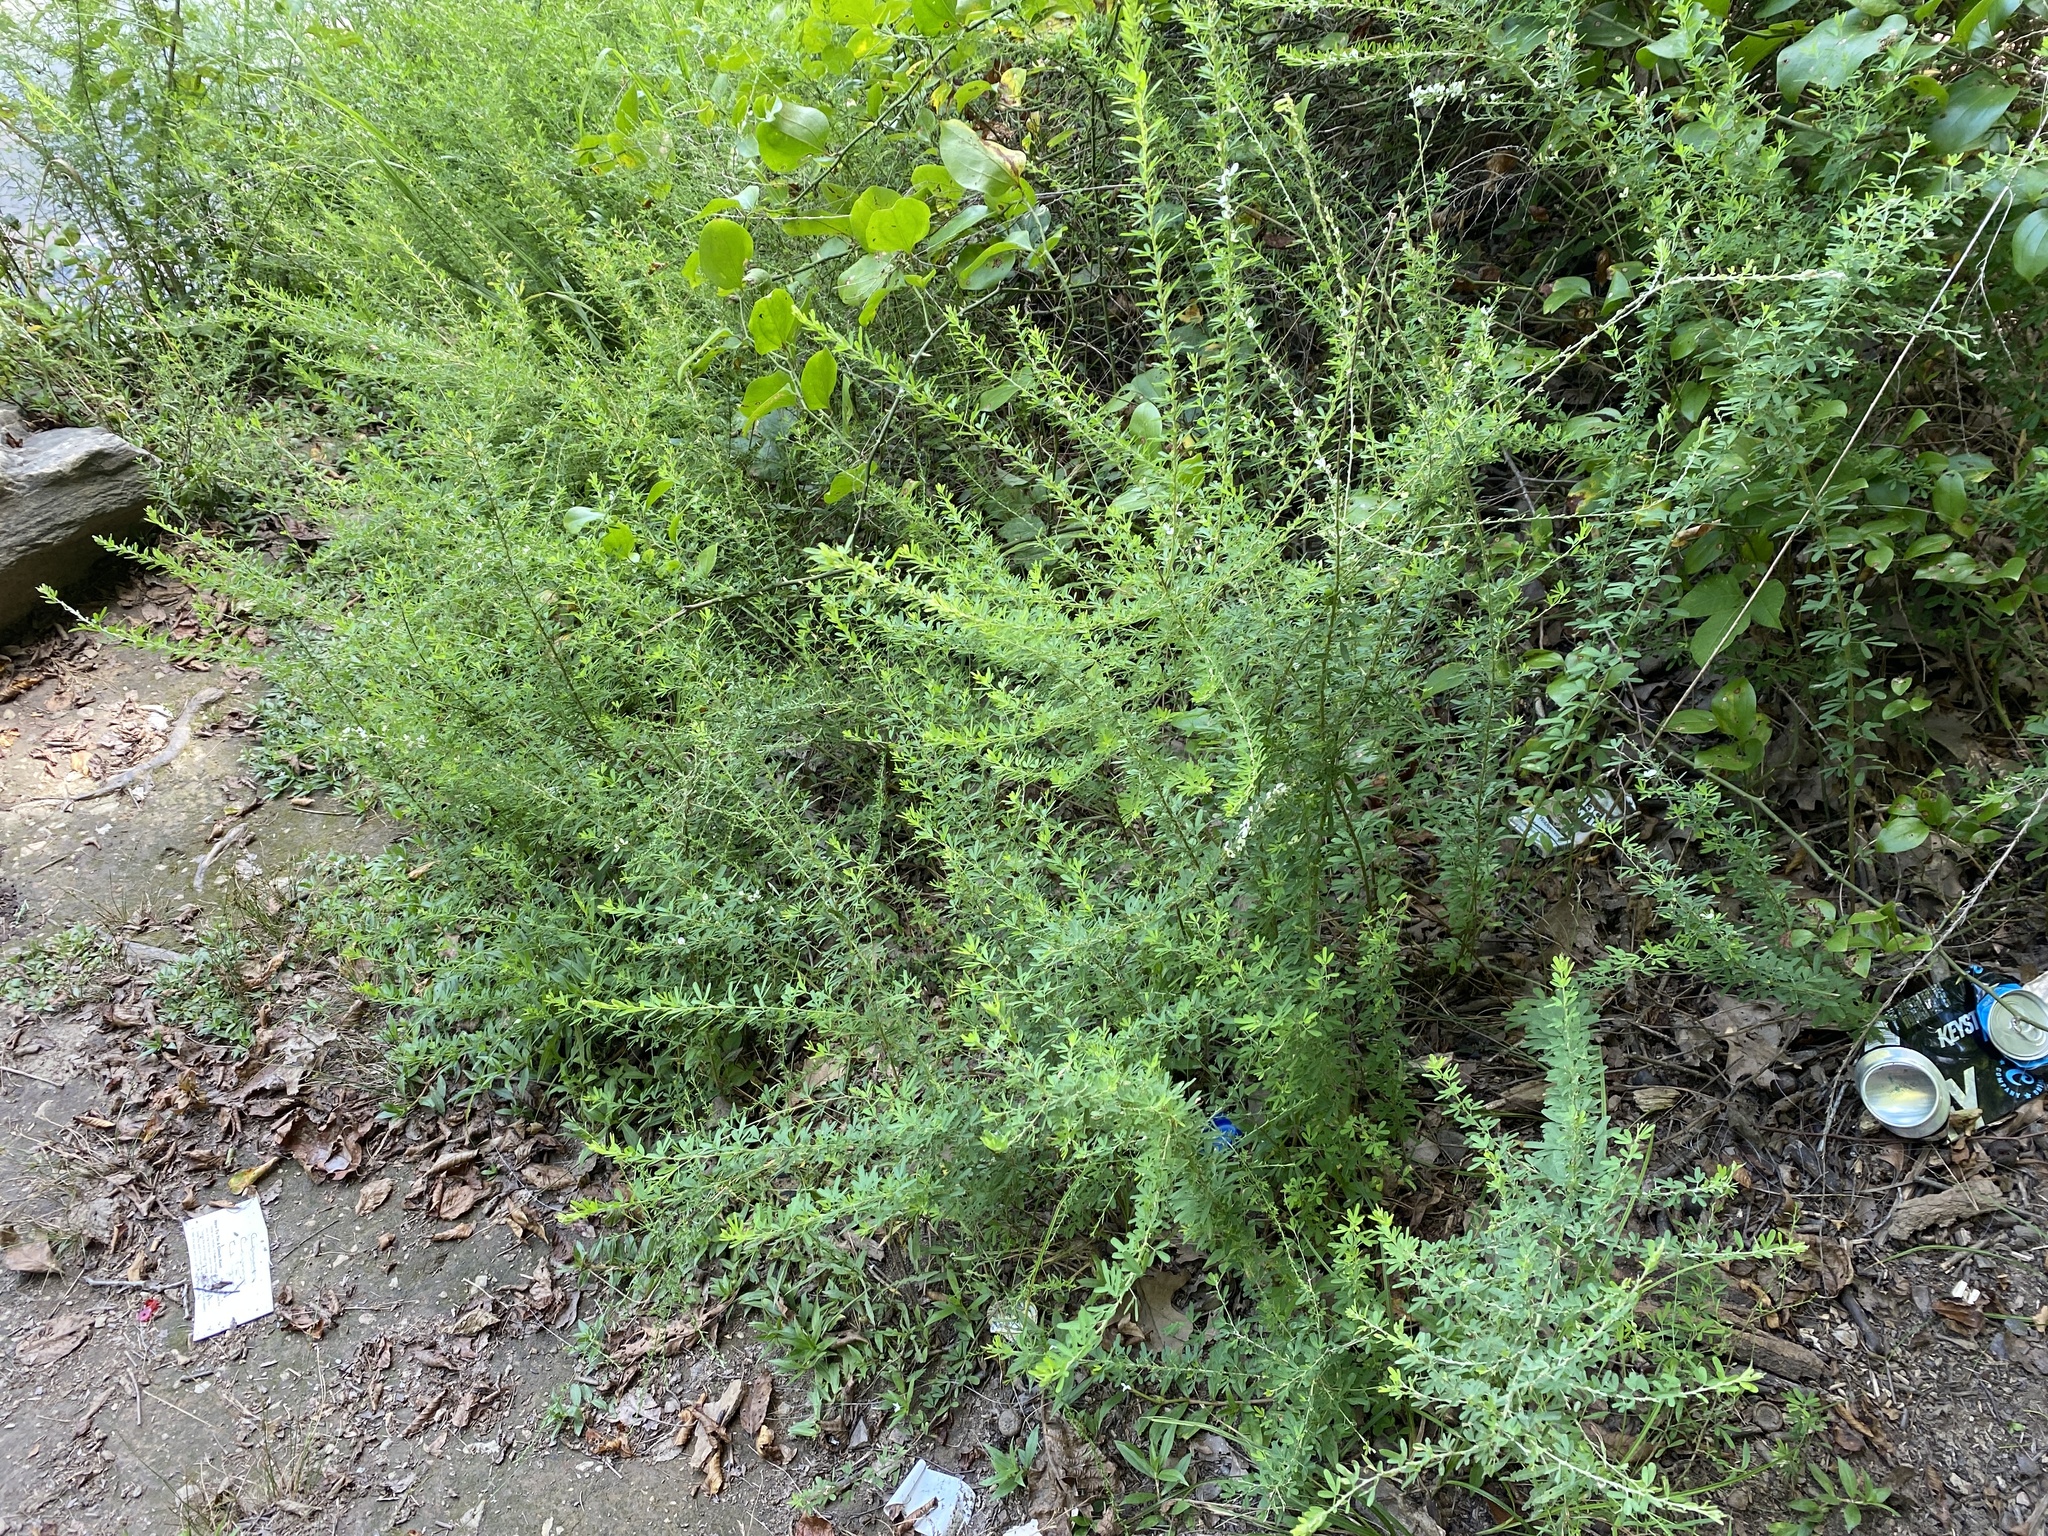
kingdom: Plantae
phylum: Tracheophyta
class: Magnoliopsida
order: Fabales
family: Fabaceae
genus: Lespedeza
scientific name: Lespedeza cuneata
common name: Chinese bush-clover
